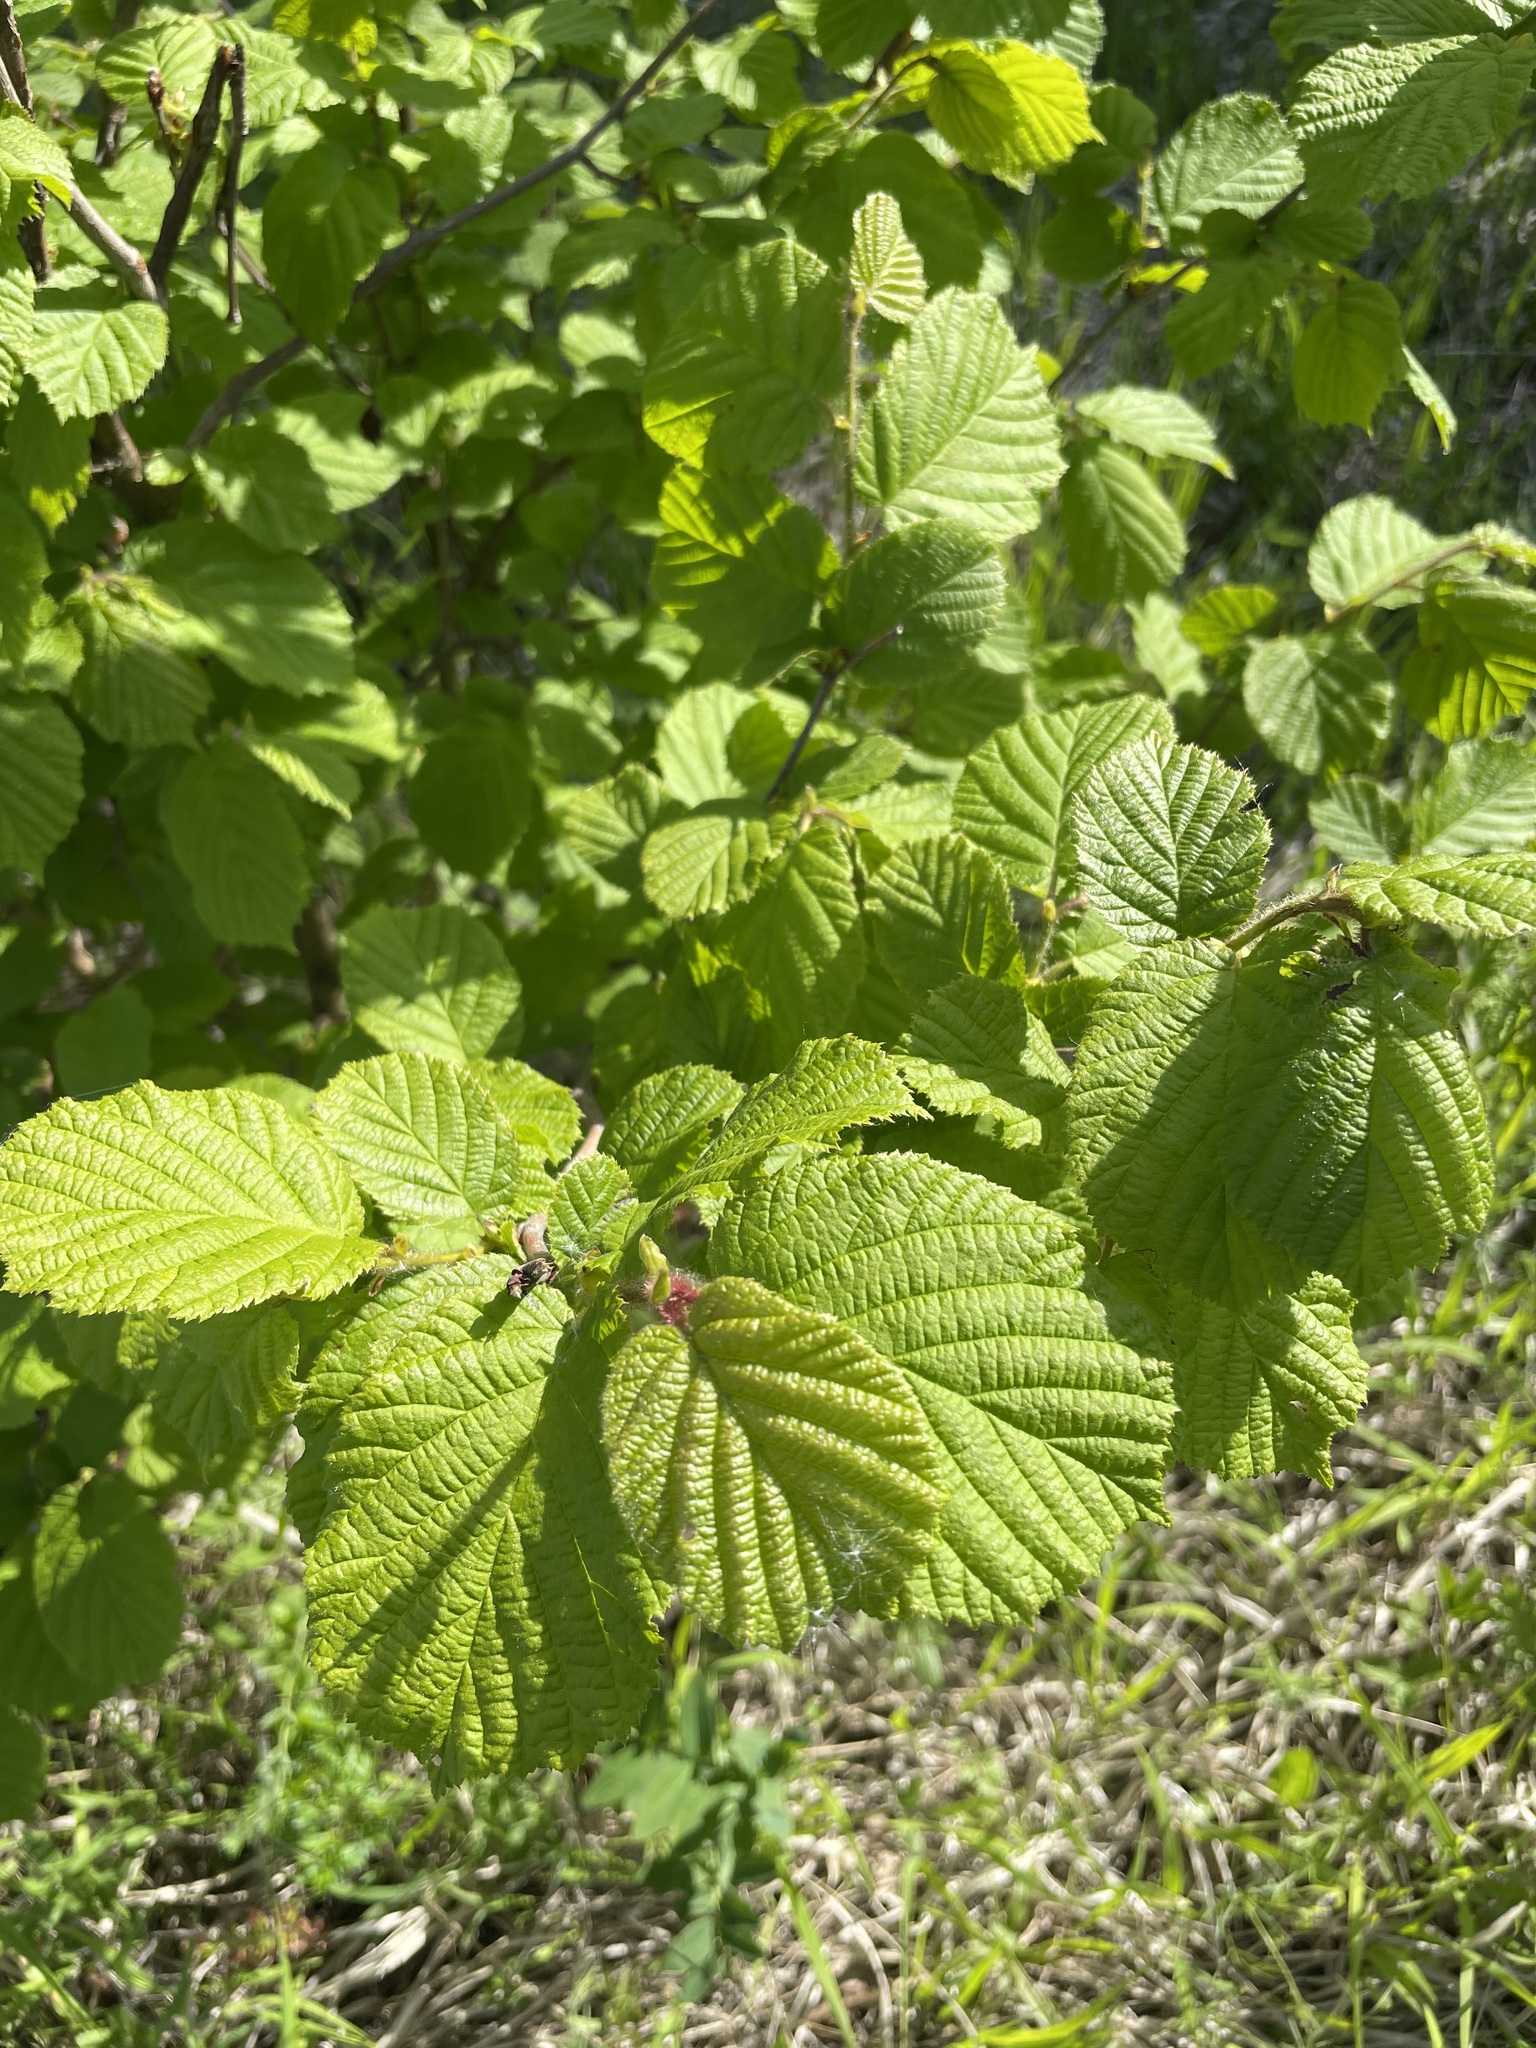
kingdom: Plantae
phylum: Tracheophyta
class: Magnoliopsida
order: Fagales
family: Betulaceae
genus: Corylus
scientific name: Corylus avellana
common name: European hazel
